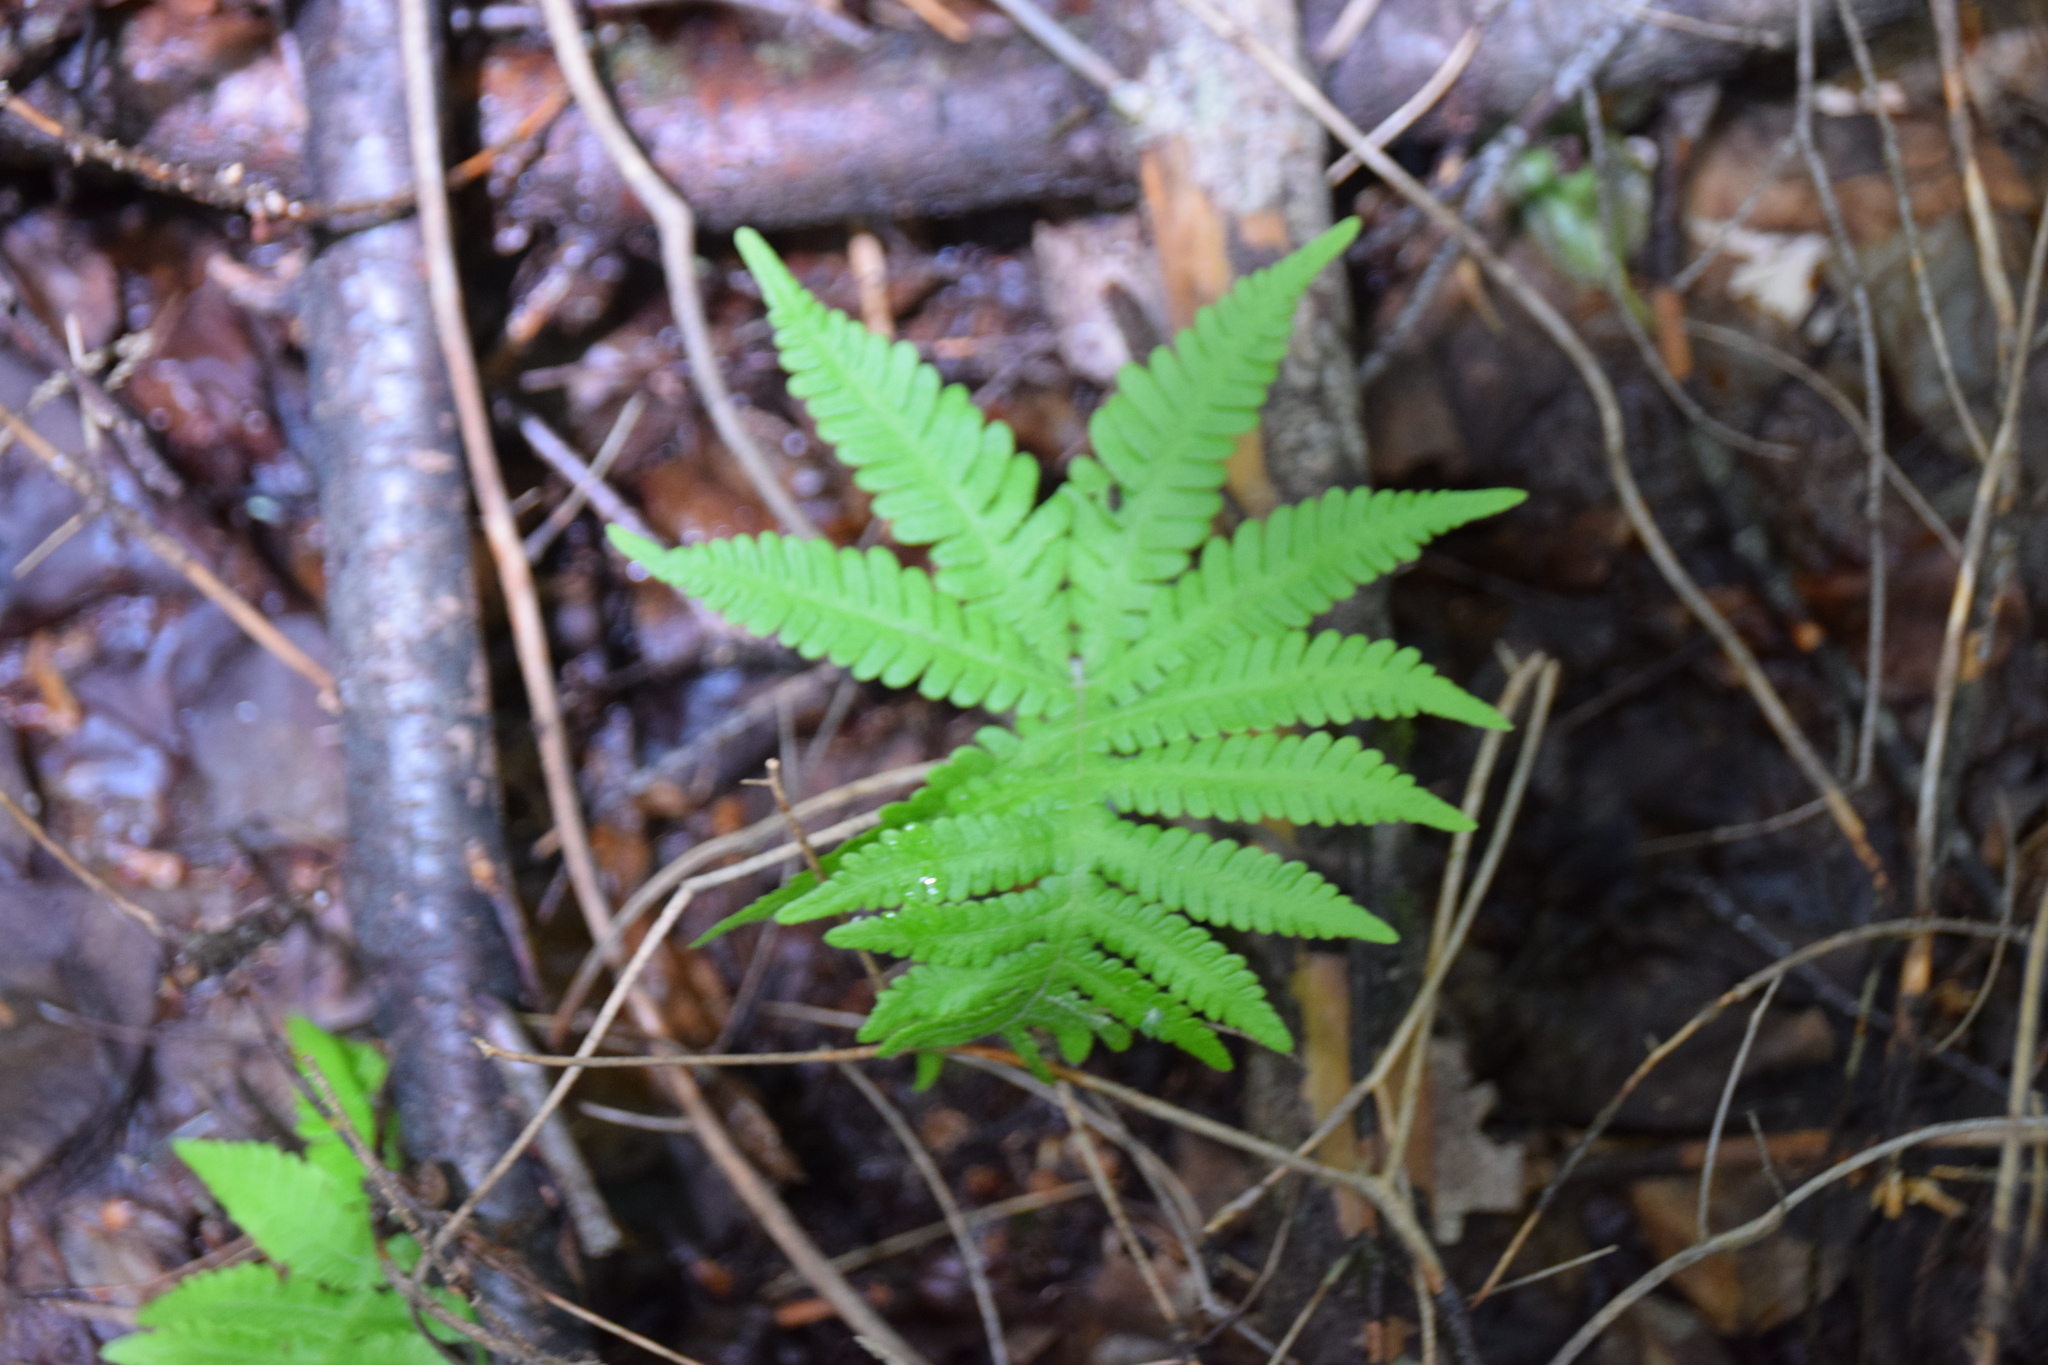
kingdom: Plantae
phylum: Tracheophyta
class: Polypodiopsida
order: Polypodiales
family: Thelypteridaceae
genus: Phegopteris
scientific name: Phegopteris connectilis
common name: Beech fern
